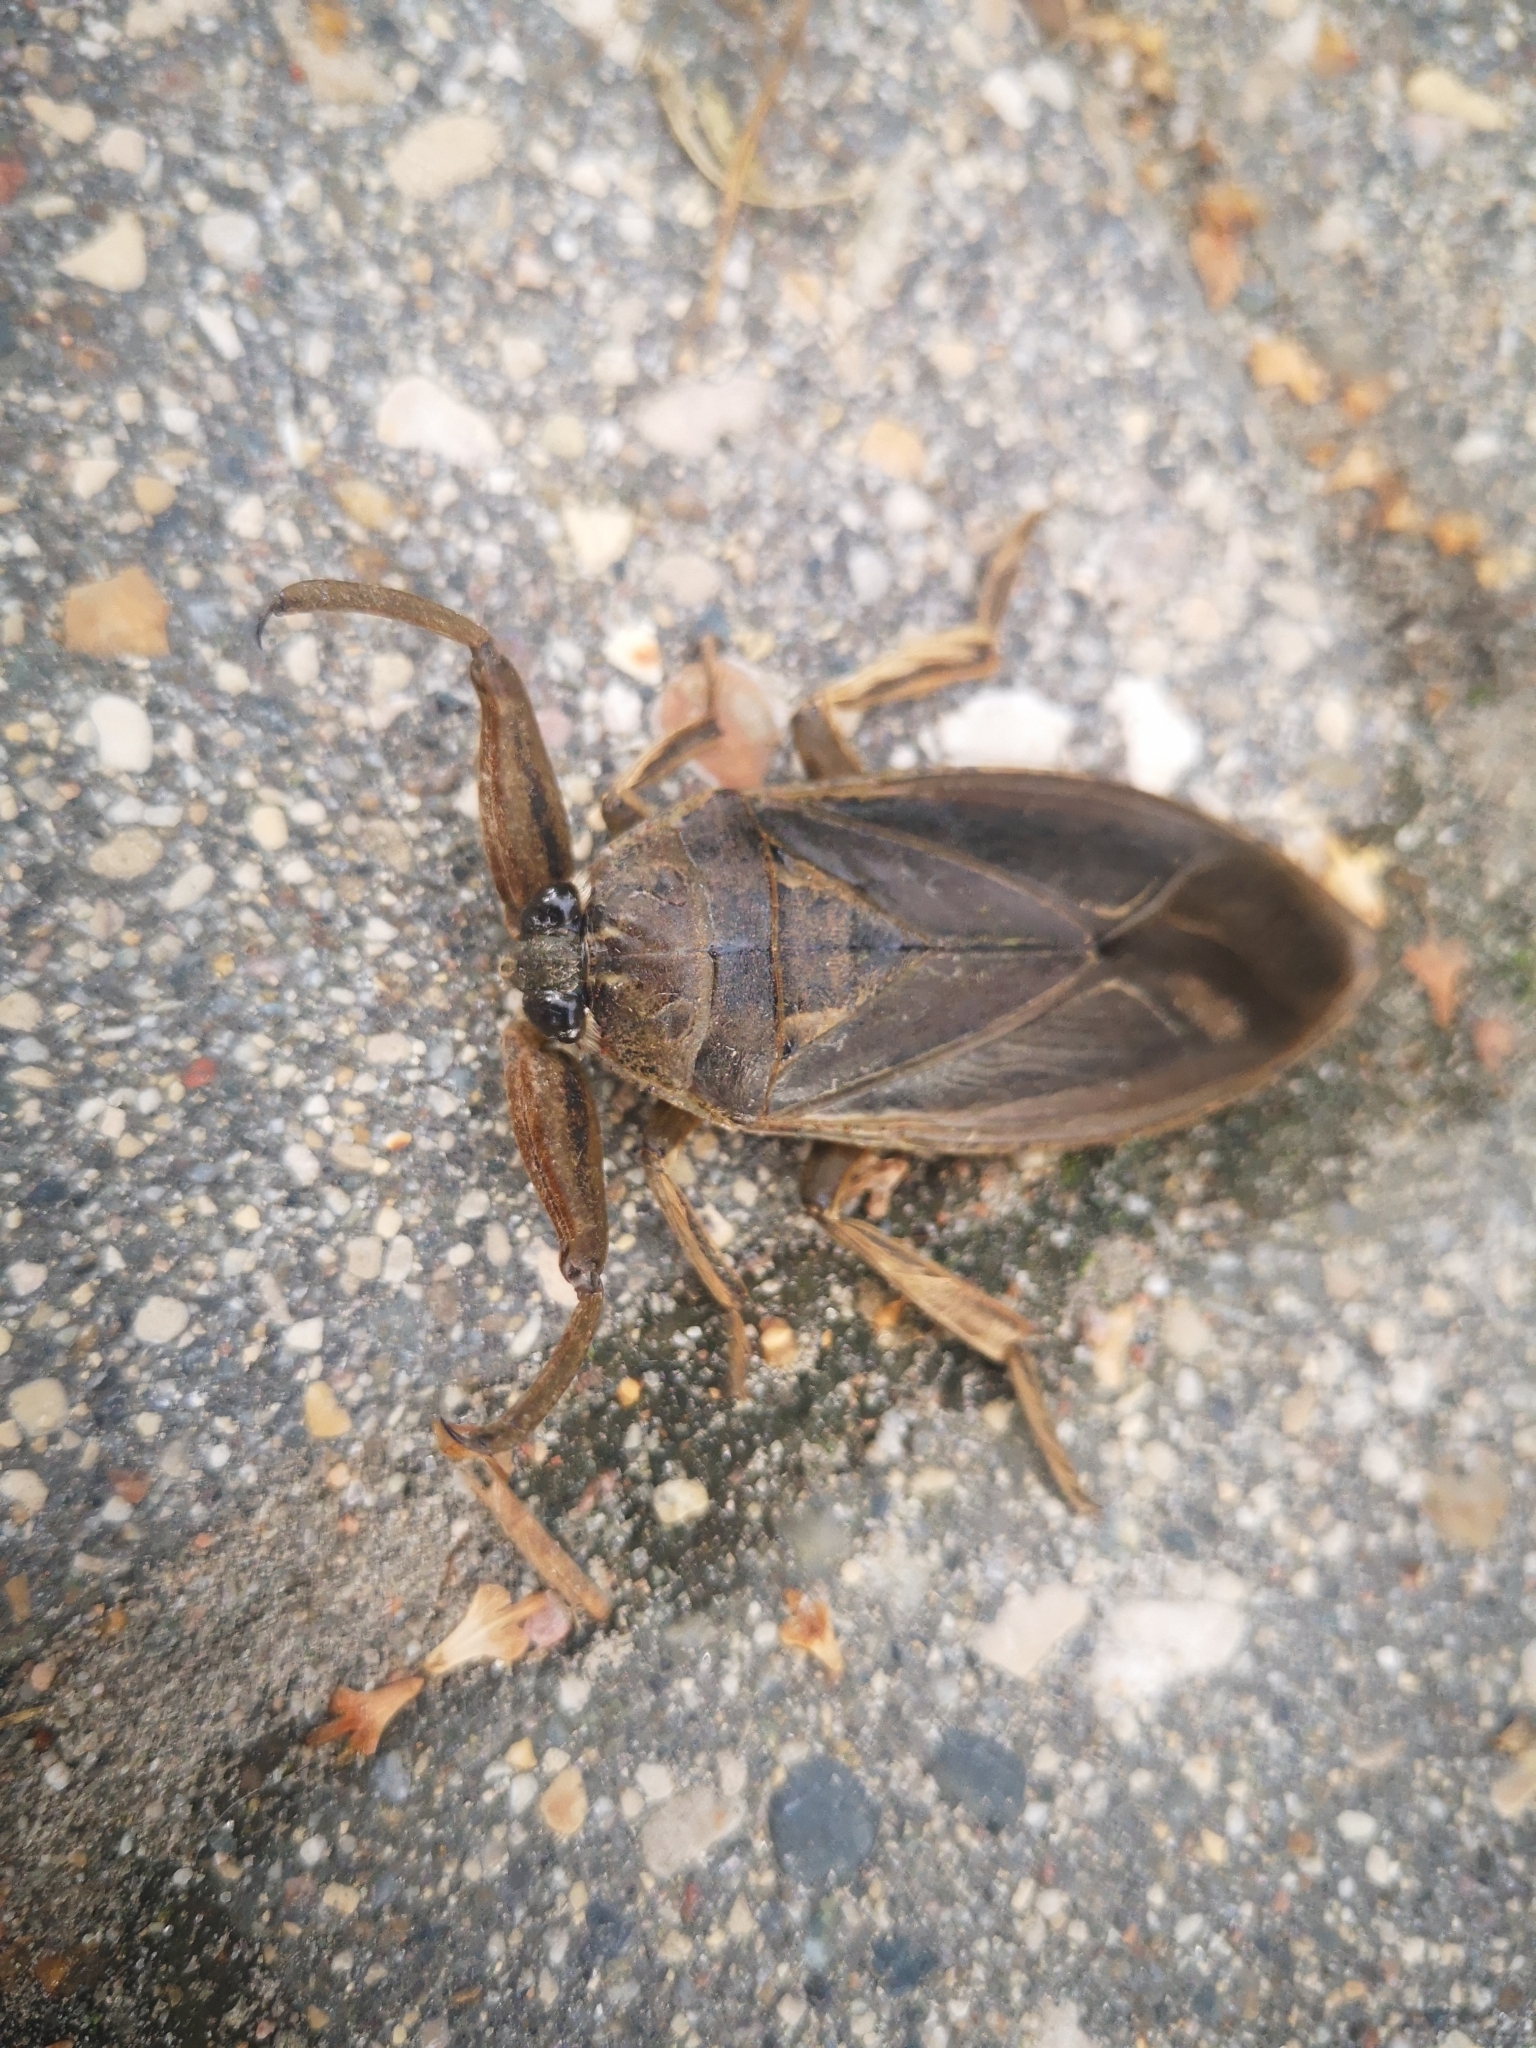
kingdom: Animalia
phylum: Arthropoda
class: Insecta
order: Hemiptera
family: Belostomatidae
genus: Lethocerus
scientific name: Lethocerus americanus
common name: Giant water bug
